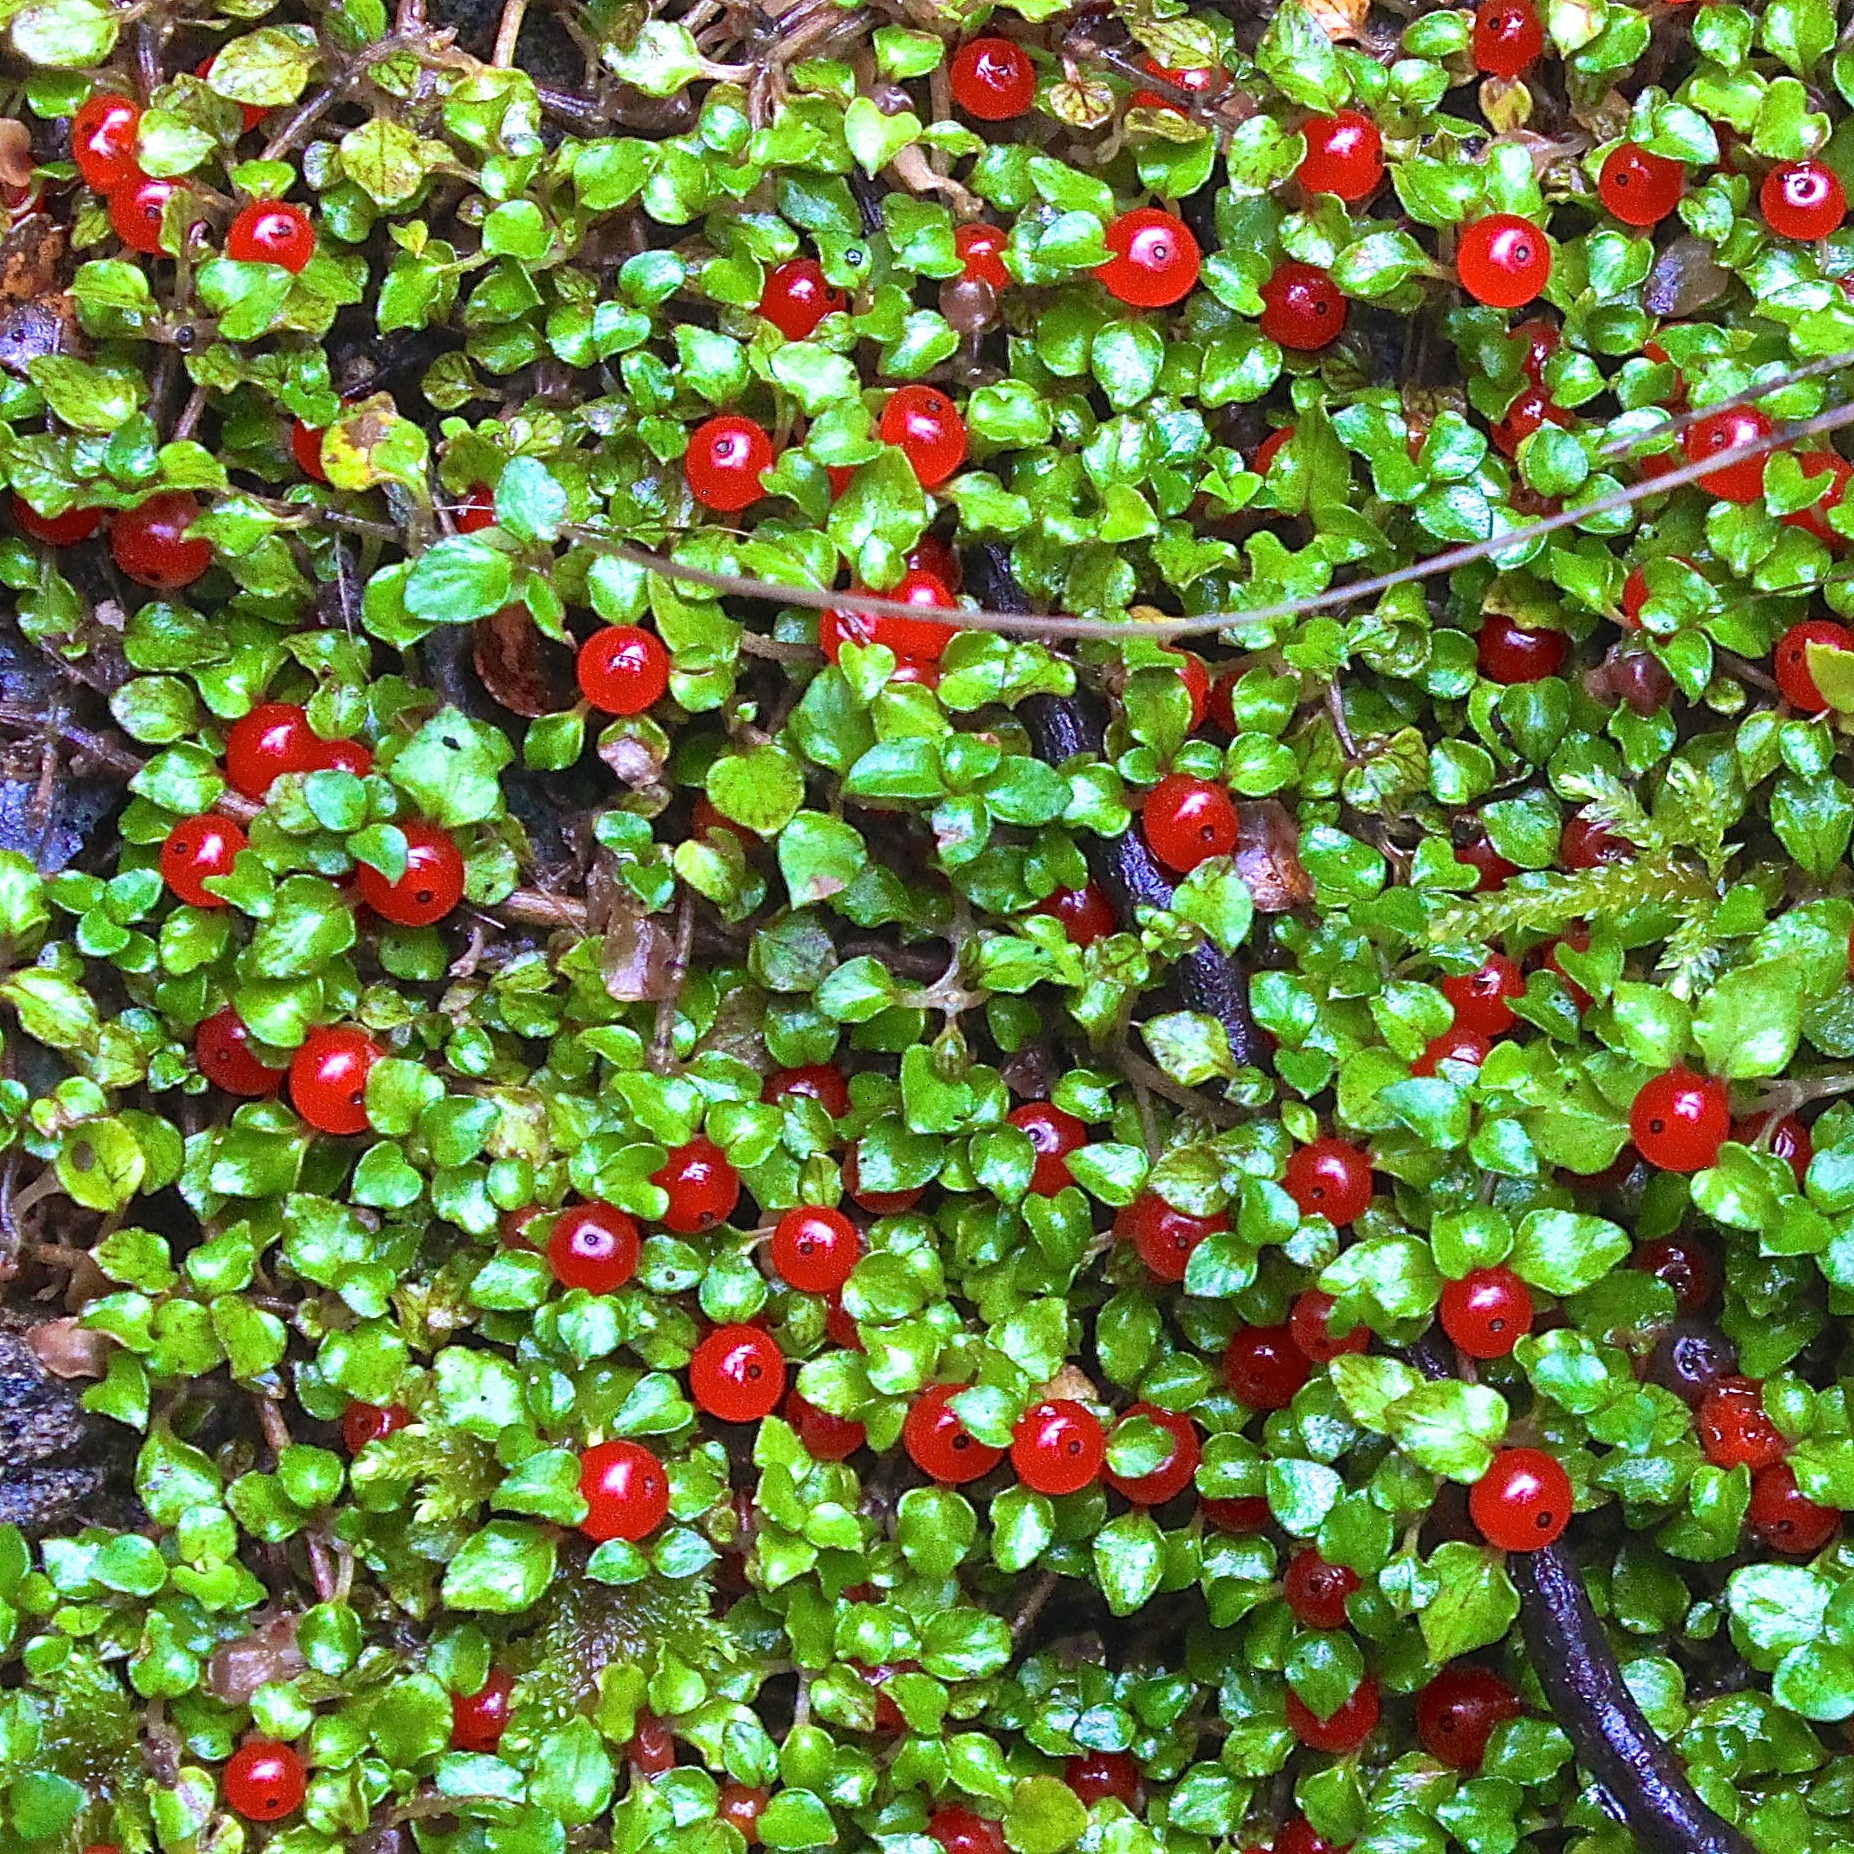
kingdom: Plantae
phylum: Tracheophyta
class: Magnoliopsida
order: Gentianales
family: Rubiaceae
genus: Nertera
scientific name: Nertera granadensis
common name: Beadplant
